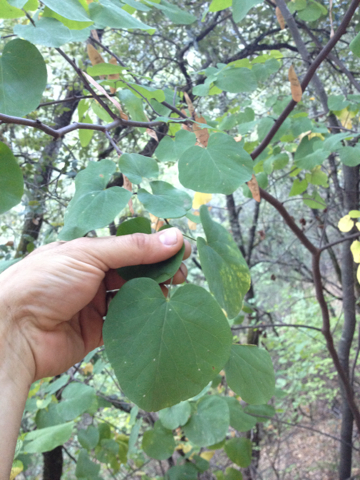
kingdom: Plantae
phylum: Tracheophyta
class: Magnoliopsida
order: Fabales
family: Fabaceae
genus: Cercis
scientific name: Cercis occidentalis
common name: California redbud
